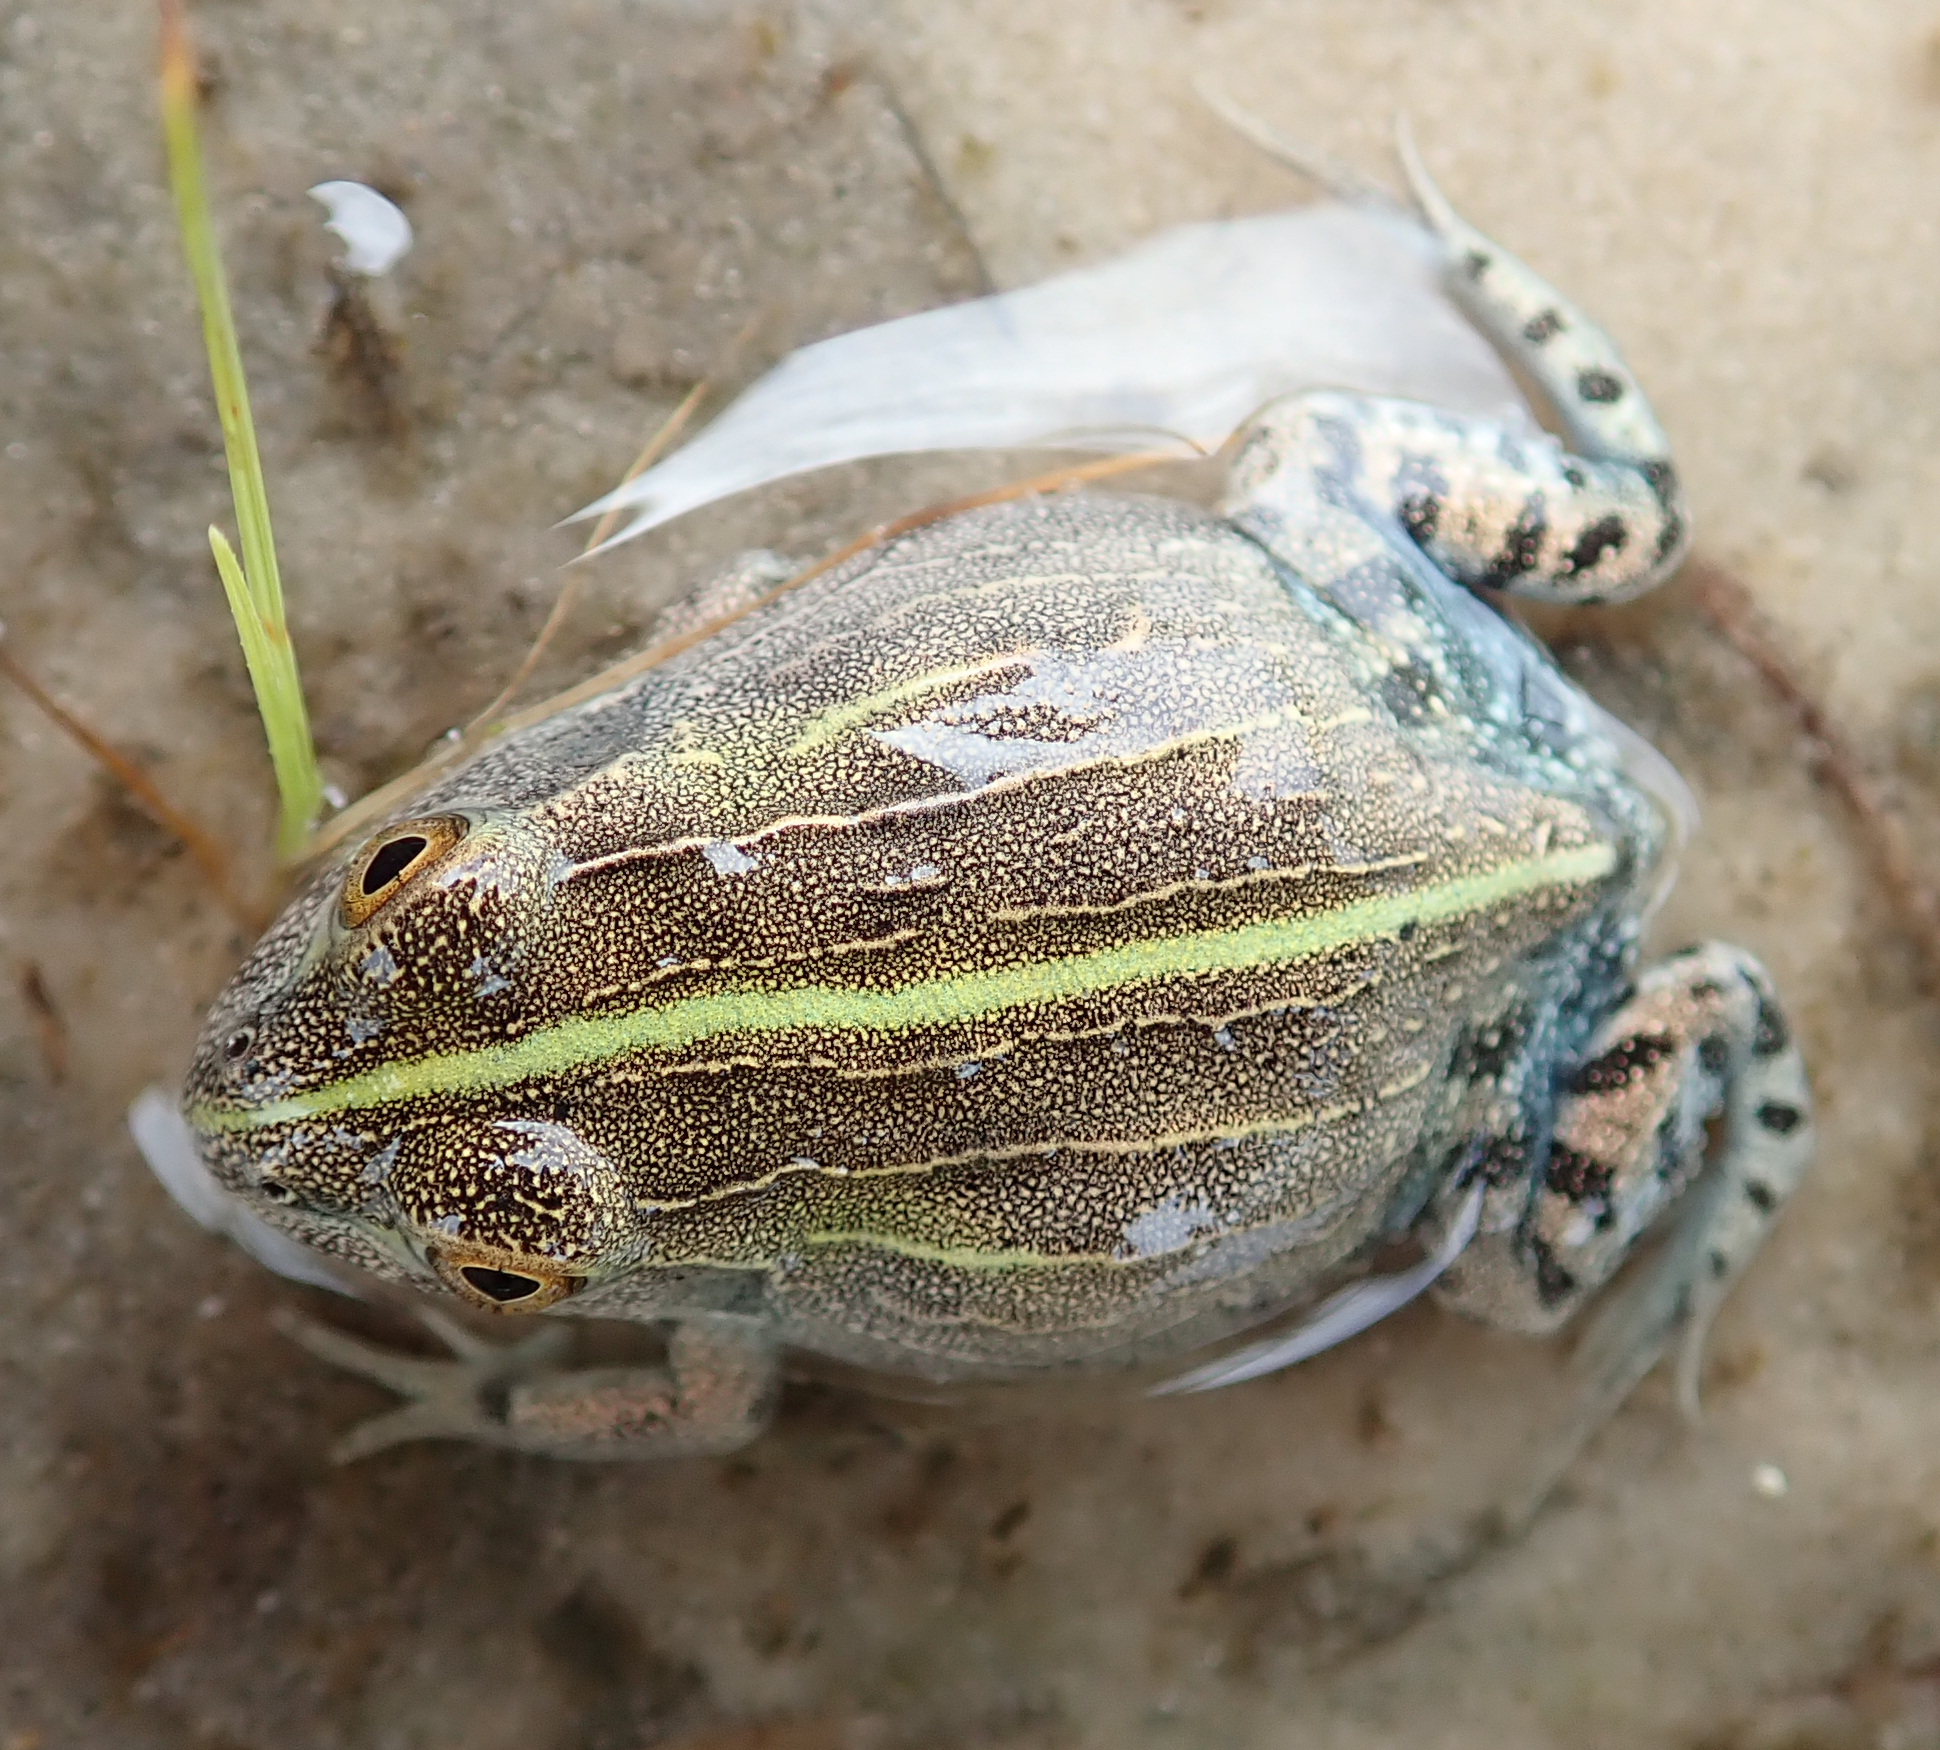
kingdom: Animalia
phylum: Chordata
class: Amphibia
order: Anura
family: Pyxicephalidae
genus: Pyxicephalus
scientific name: Pyxicephalus adspersus
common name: African bullfrog
